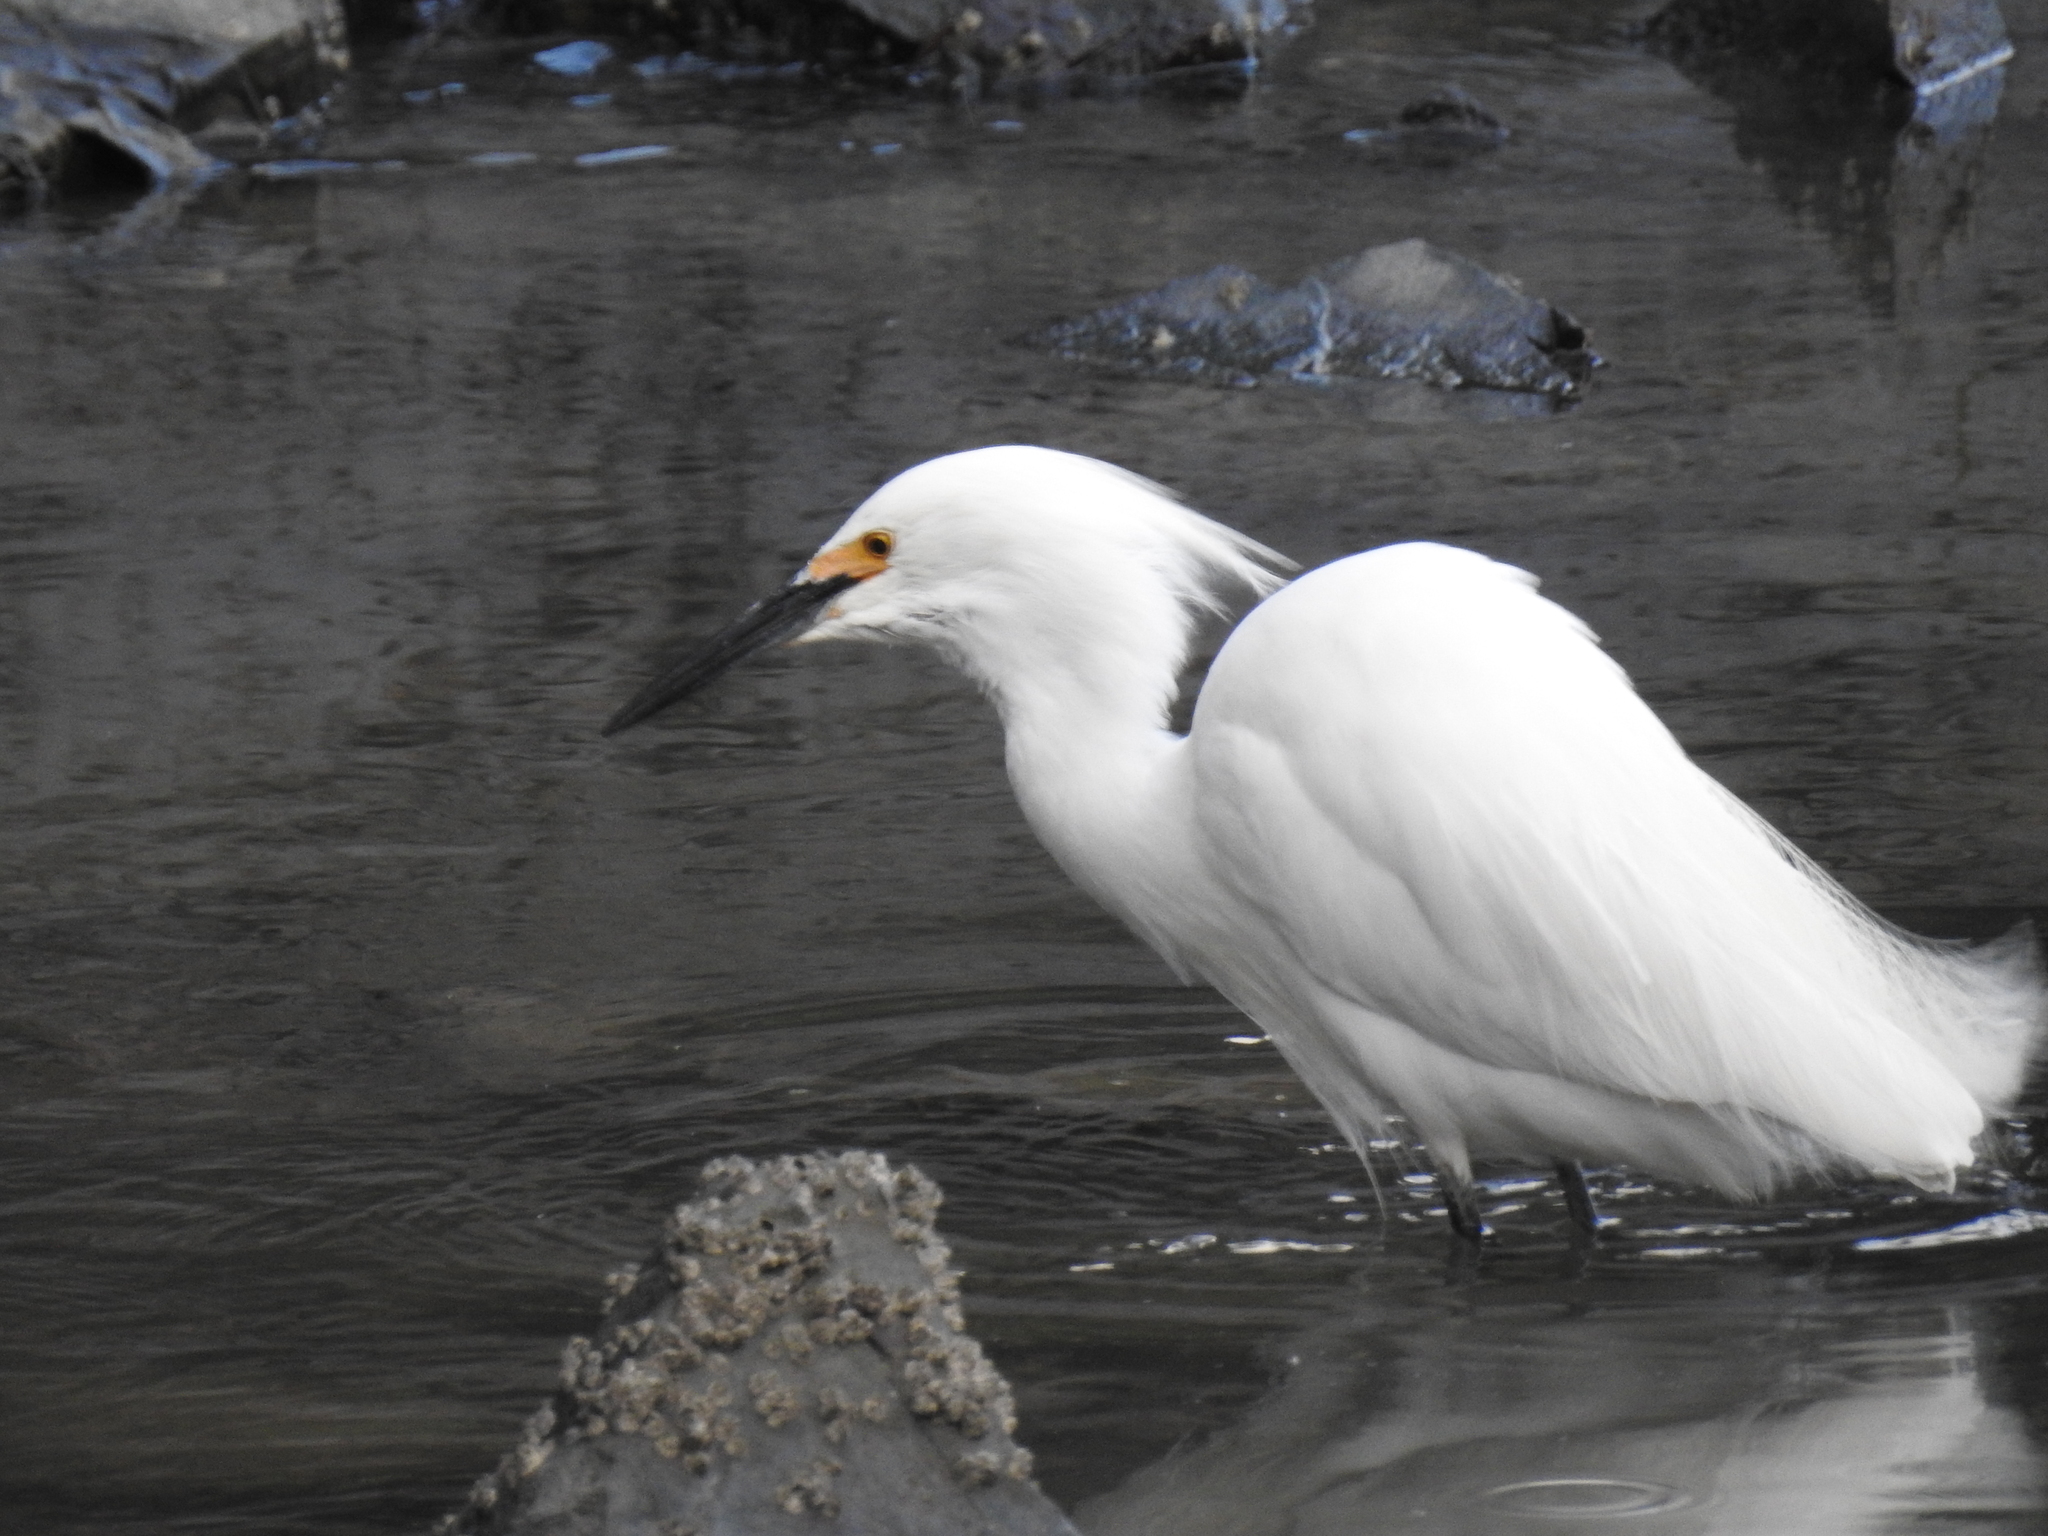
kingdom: Animalia
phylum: Chordata
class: Aves
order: Pelecaniformes
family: Ardeidae
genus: Egretta
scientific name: Egretta thula
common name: Snowy egret
